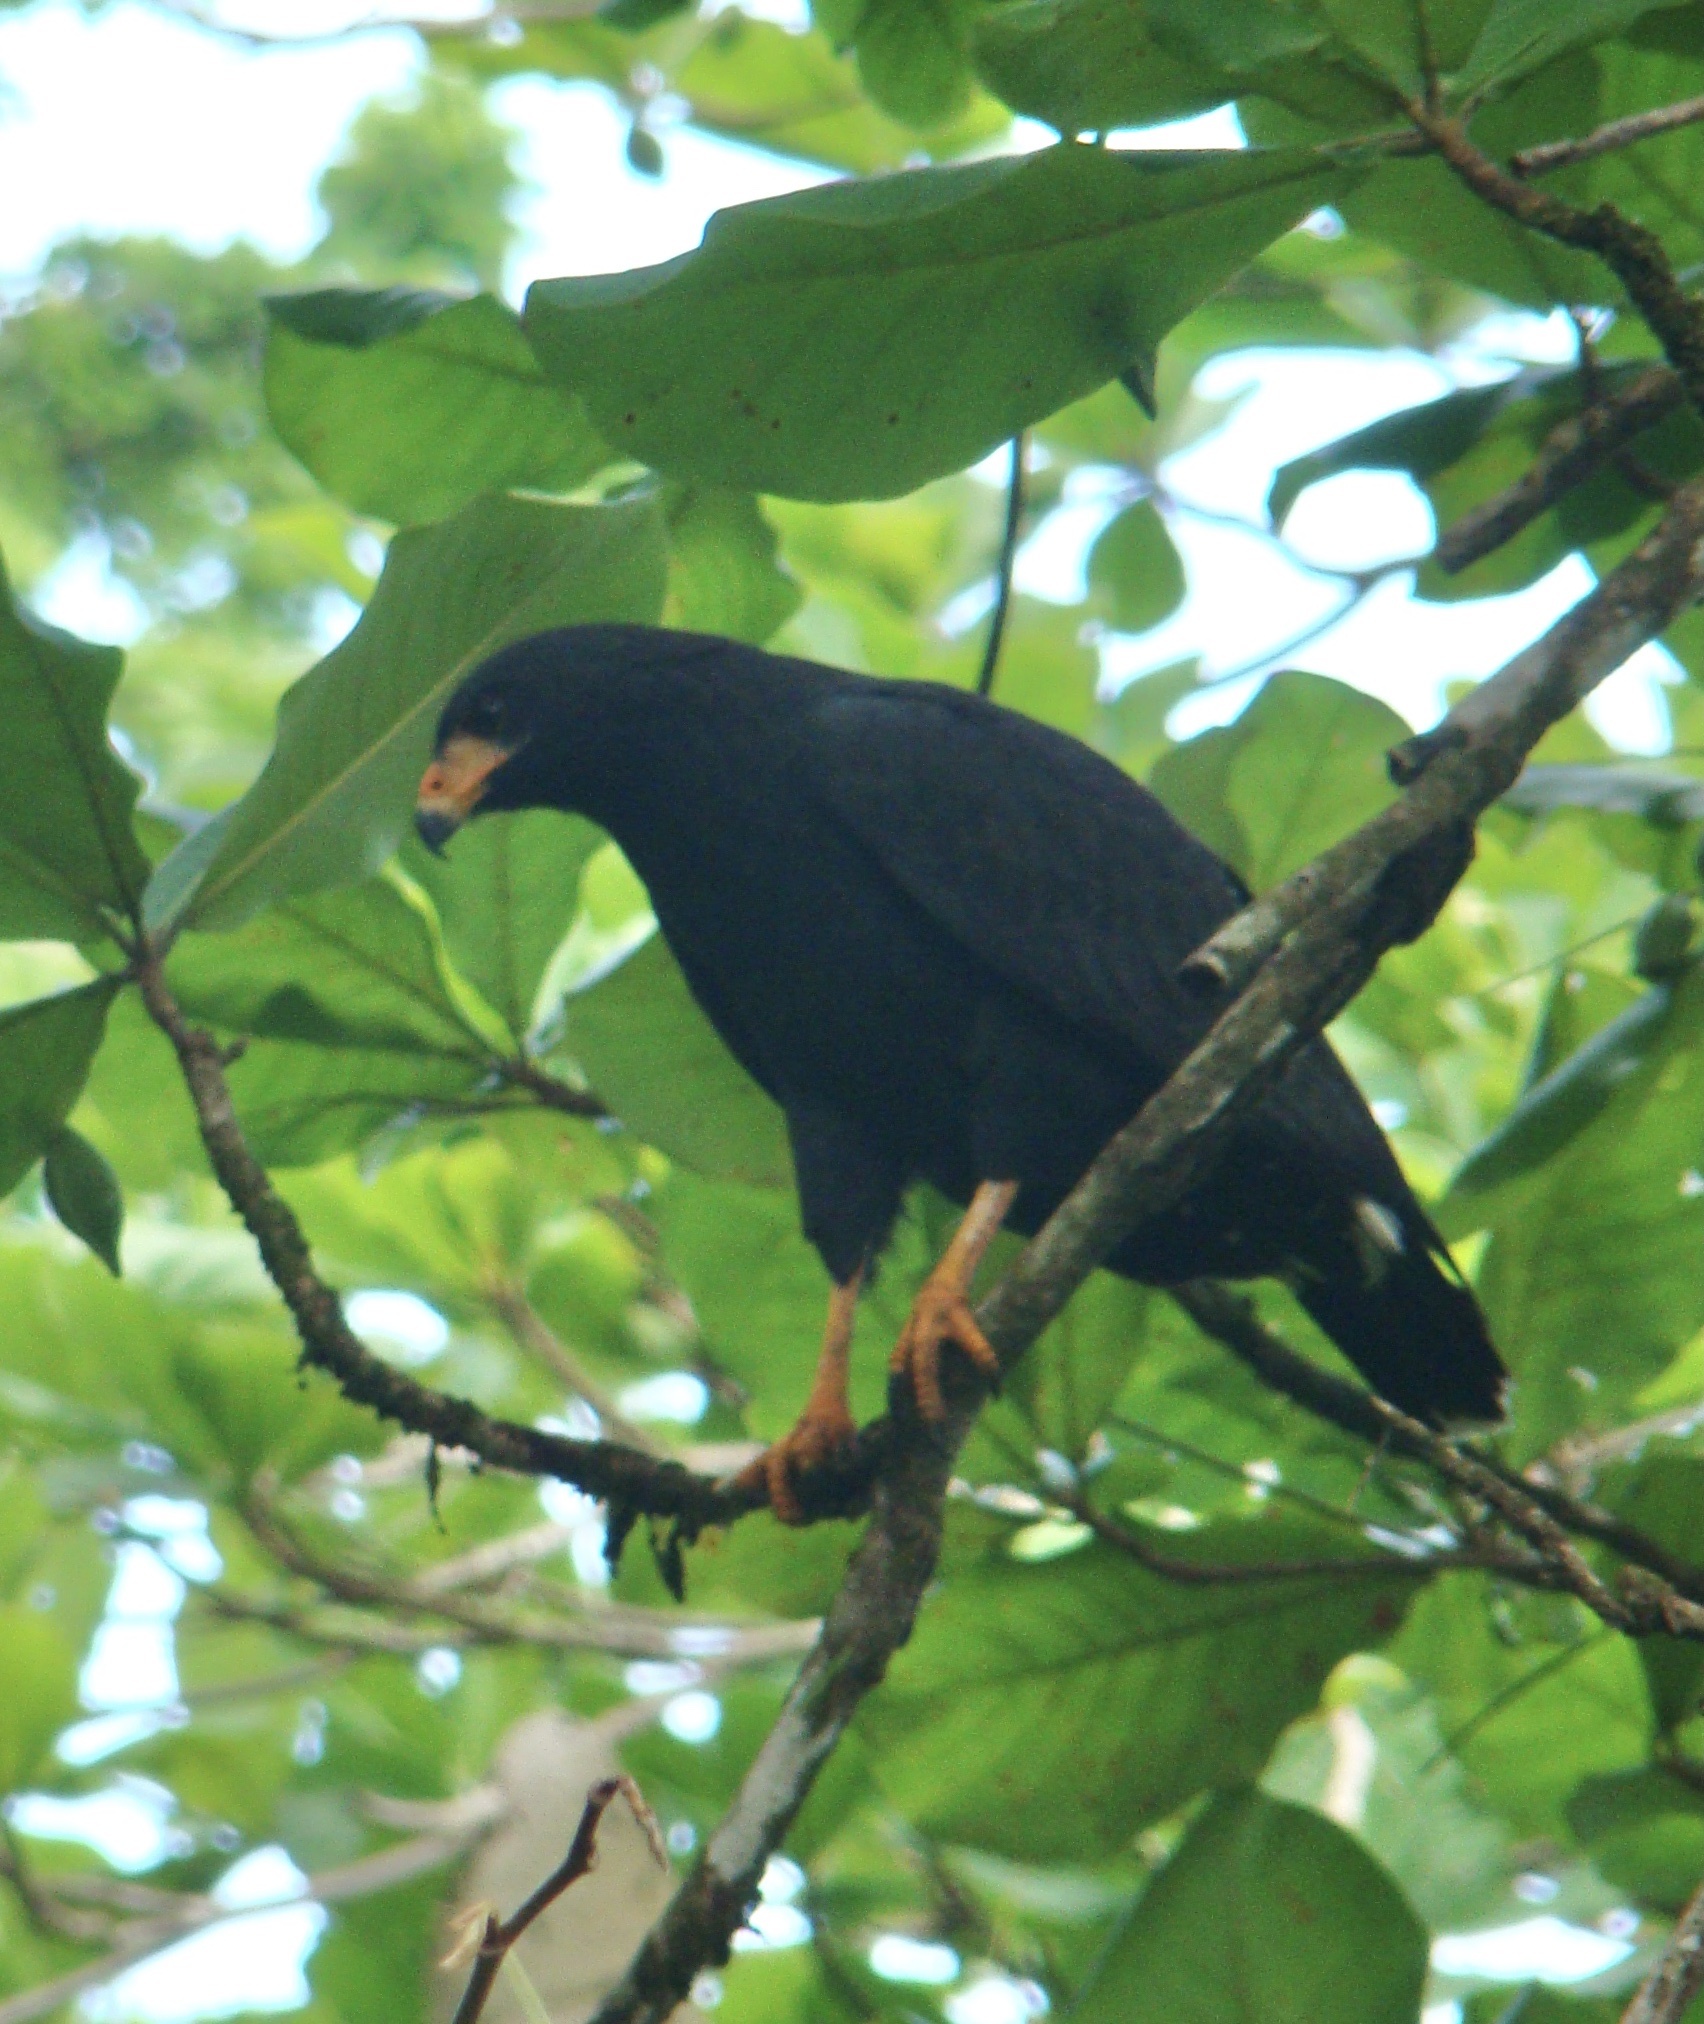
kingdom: Animalia
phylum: Chordata
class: Aves
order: Accipitriformes
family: Accipitridae
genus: Buteogallus
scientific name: Buteogallus anthracinus
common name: Common black hawk
